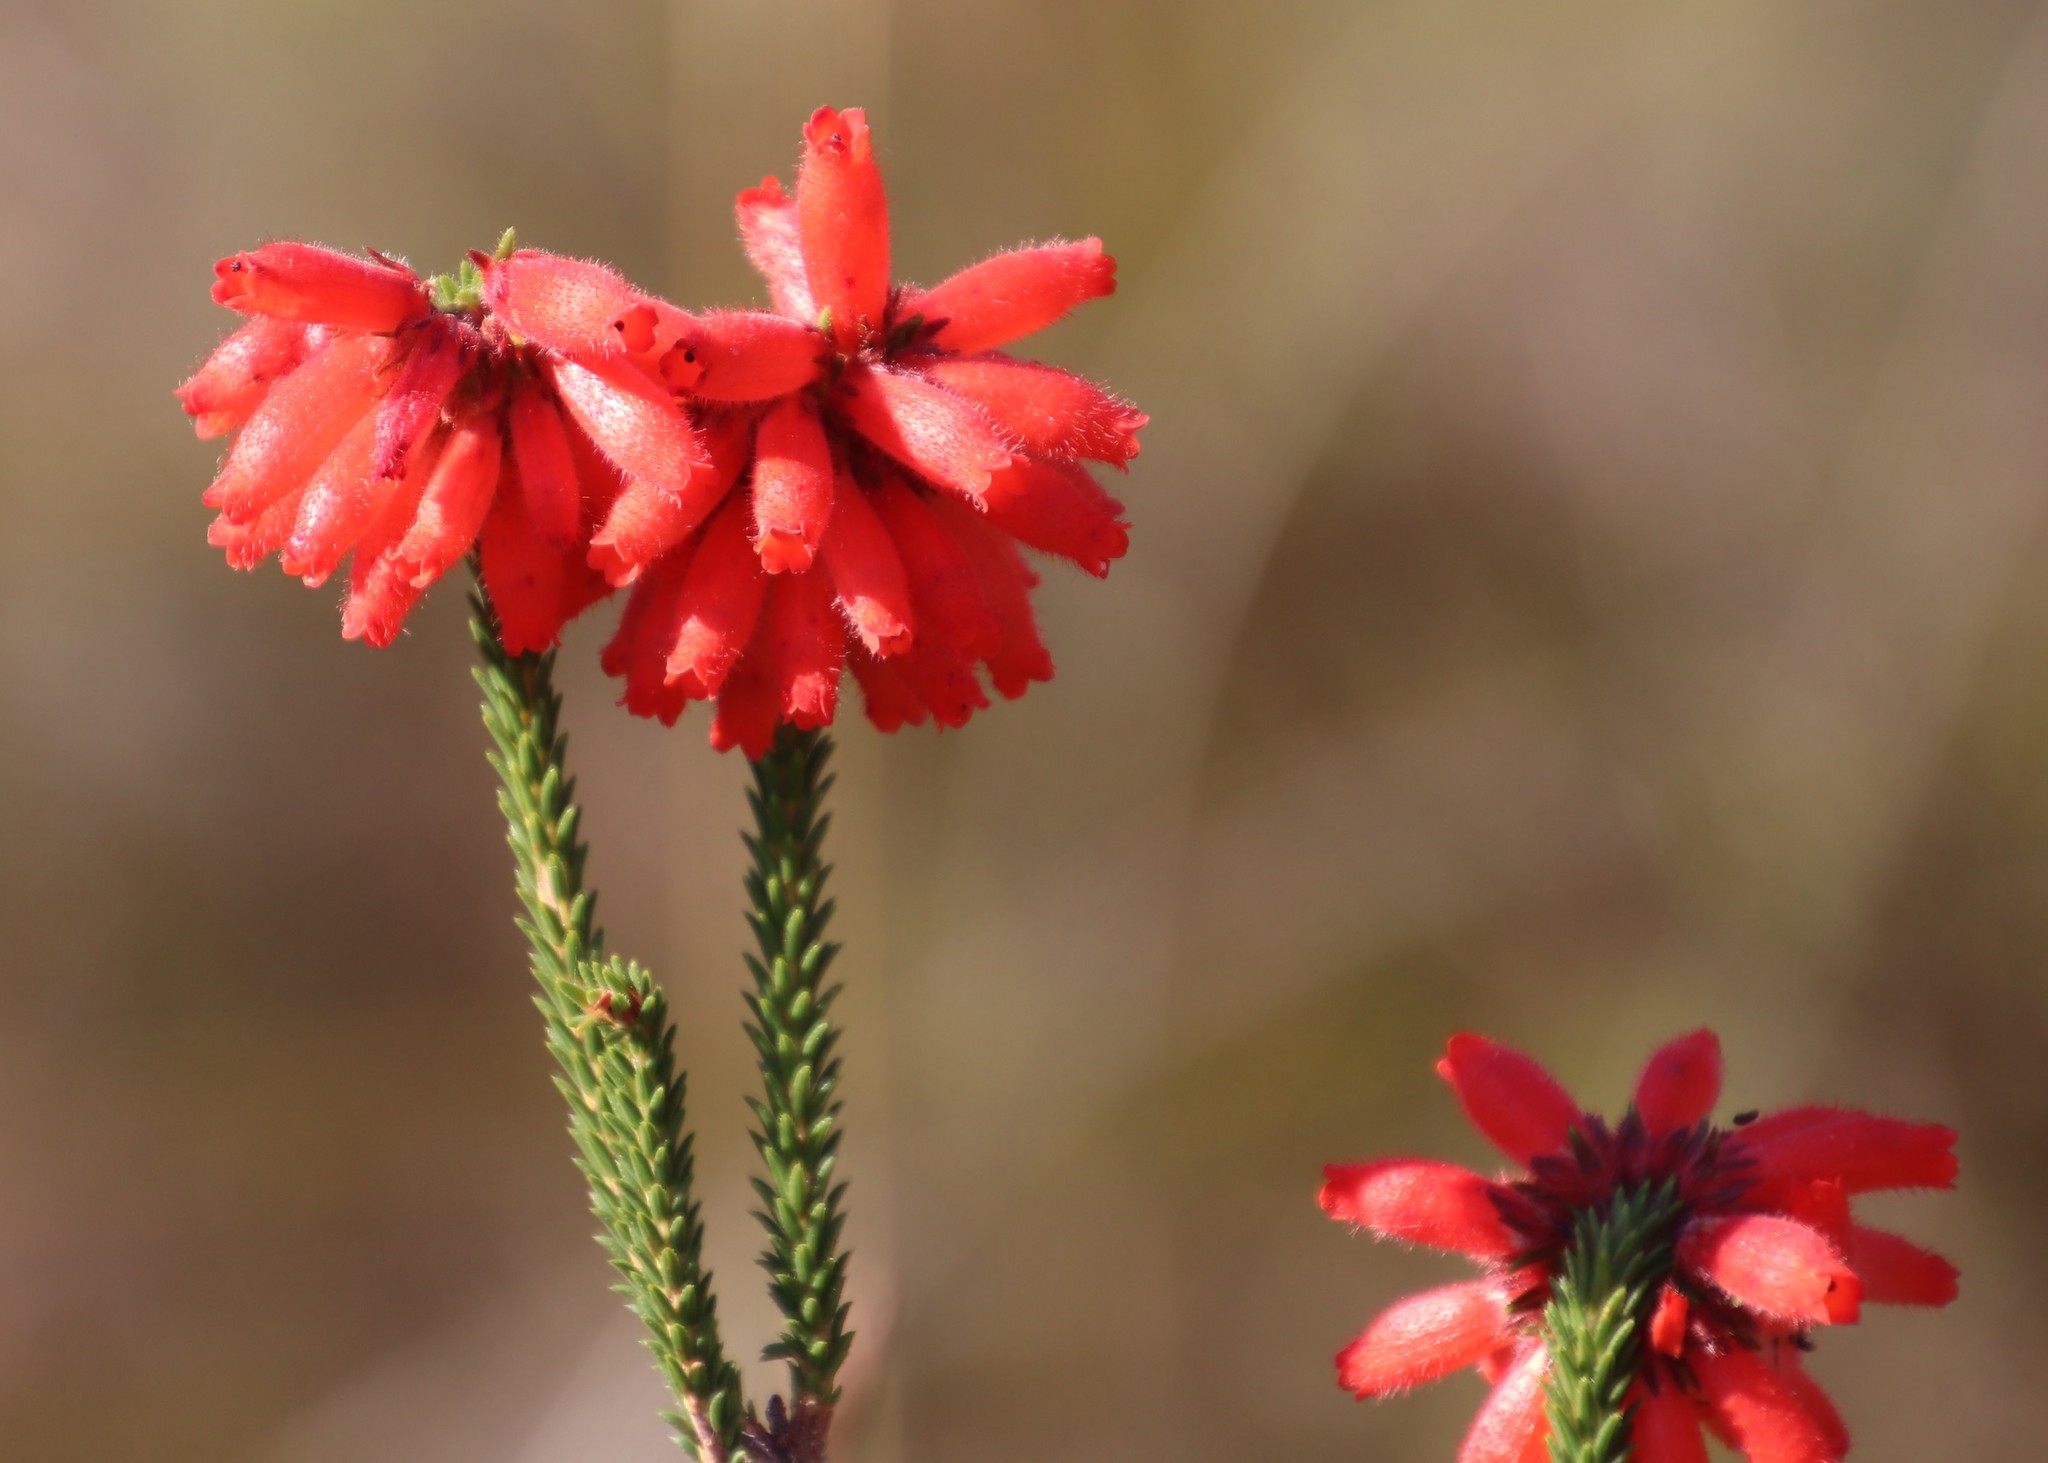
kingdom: Plantae
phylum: Tracheophyta
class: Magnoliopsida
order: Ericales
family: Ericaceae
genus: Erica
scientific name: Erica cerinthoides
